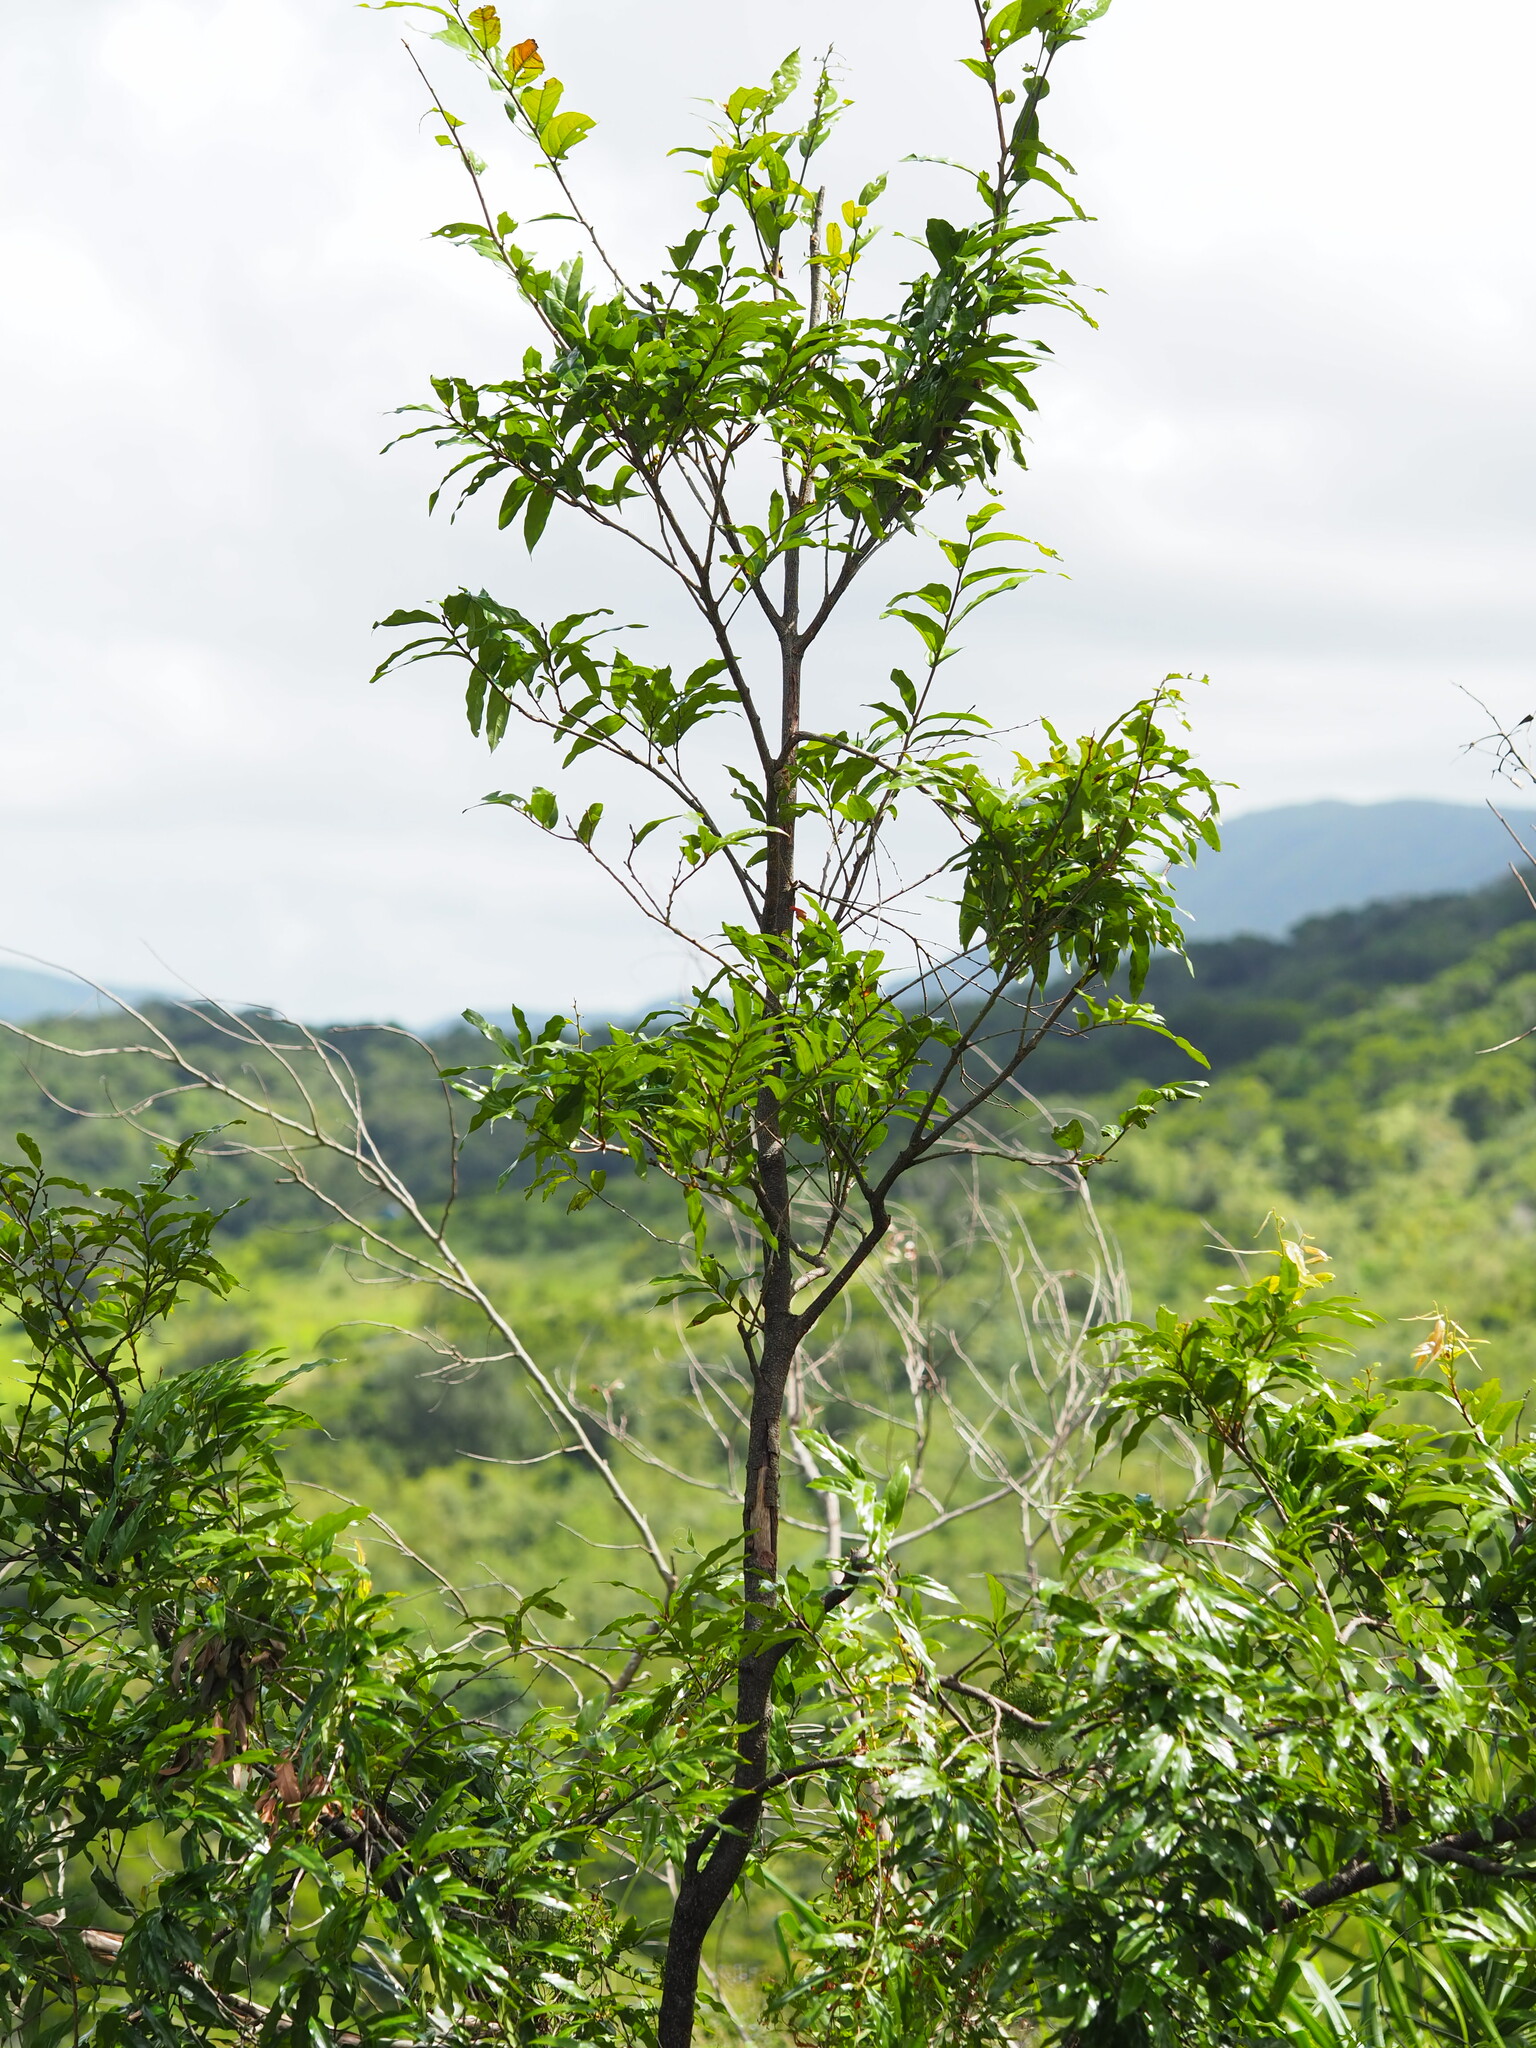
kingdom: Plantae
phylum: Tracheophyta
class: Magnoliopsida
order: Ericales
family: Ebenaceae
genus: Diospyros
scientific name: Diospyros eriantha
